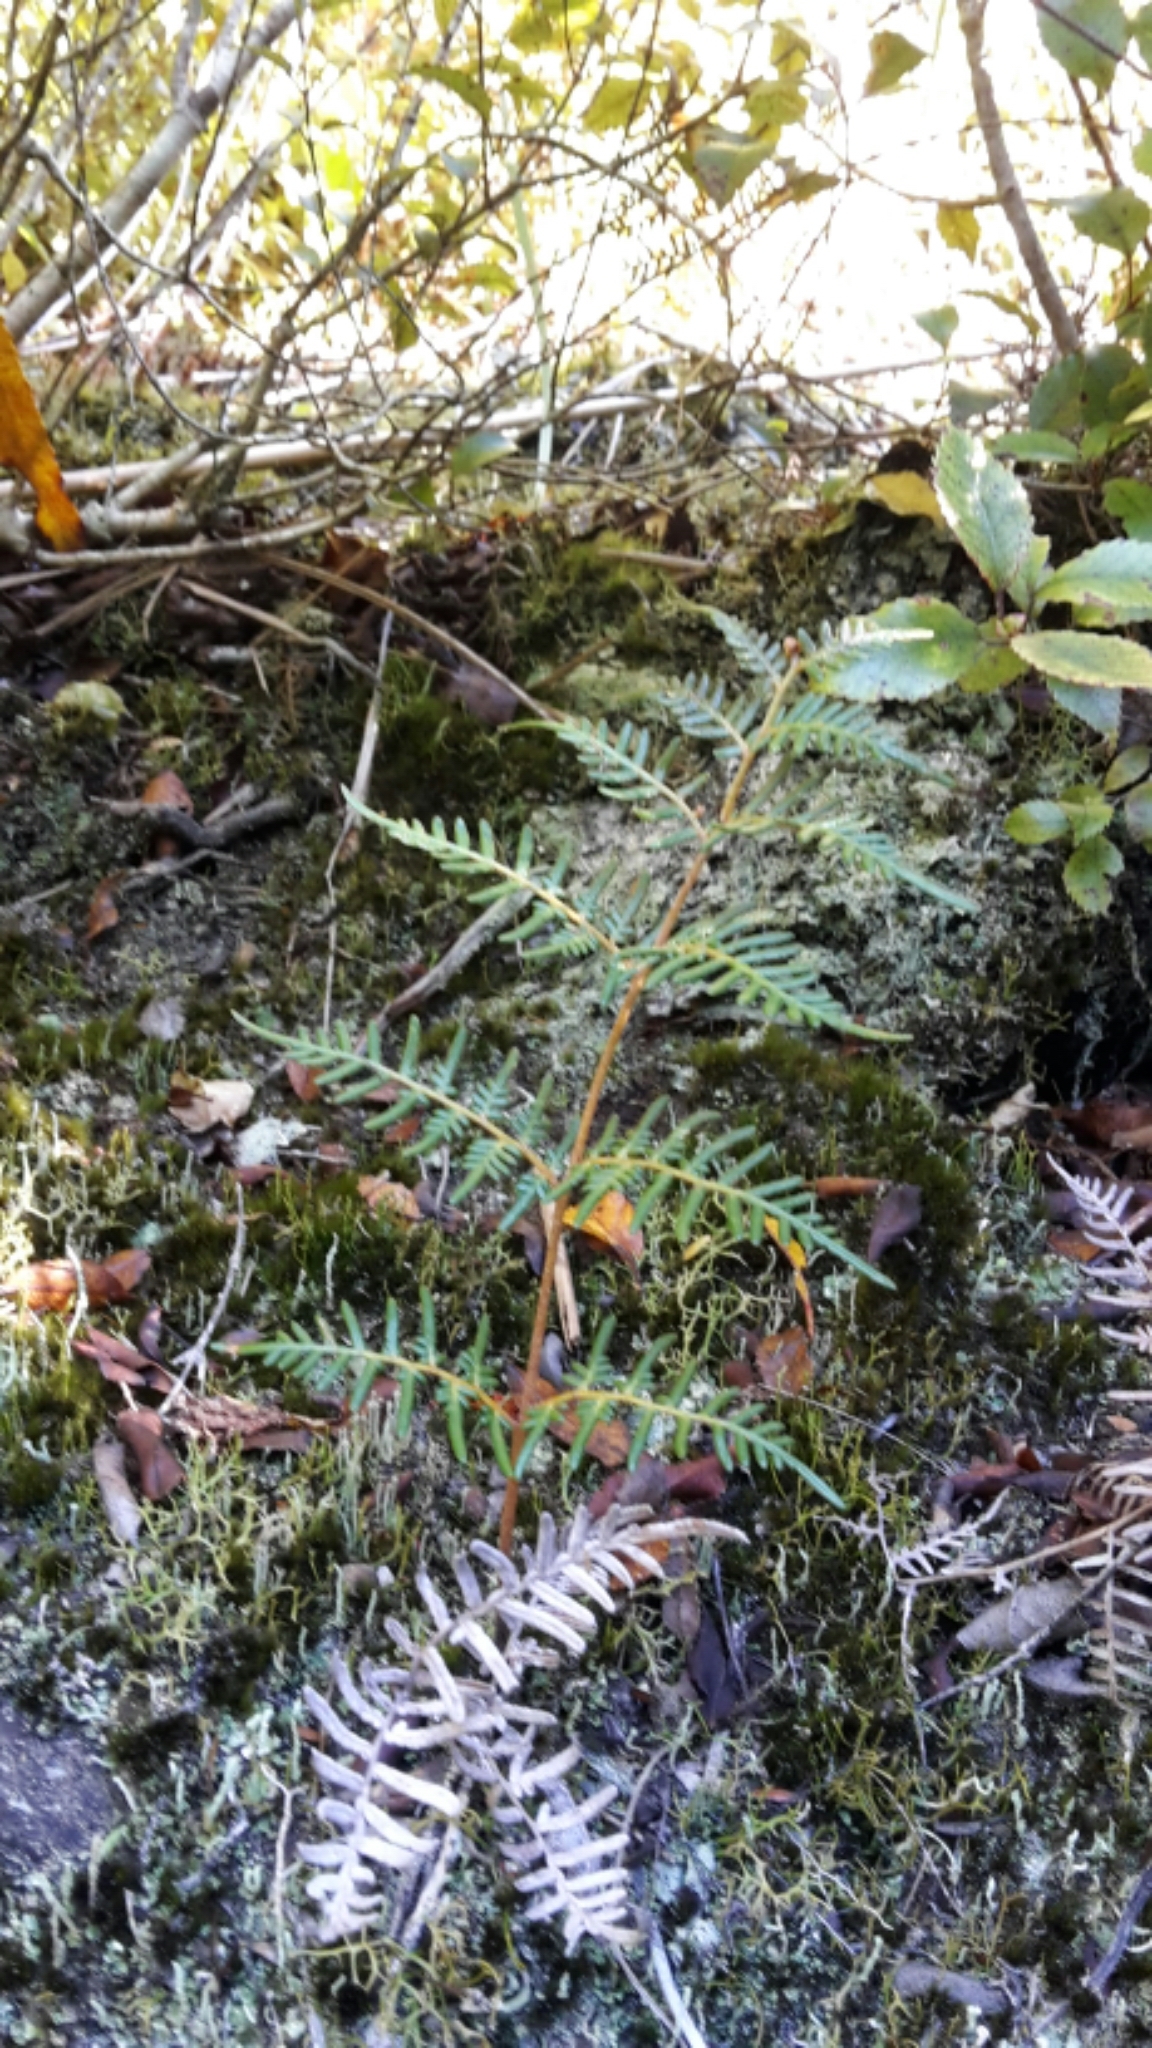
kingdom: Plantae
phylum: Tracheophyta
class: Polypodiopsida
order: Polypodiales
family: Dennstaedtiaceae
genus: Pteridium
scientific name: Pteridium esculentum
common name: Bracken fern
